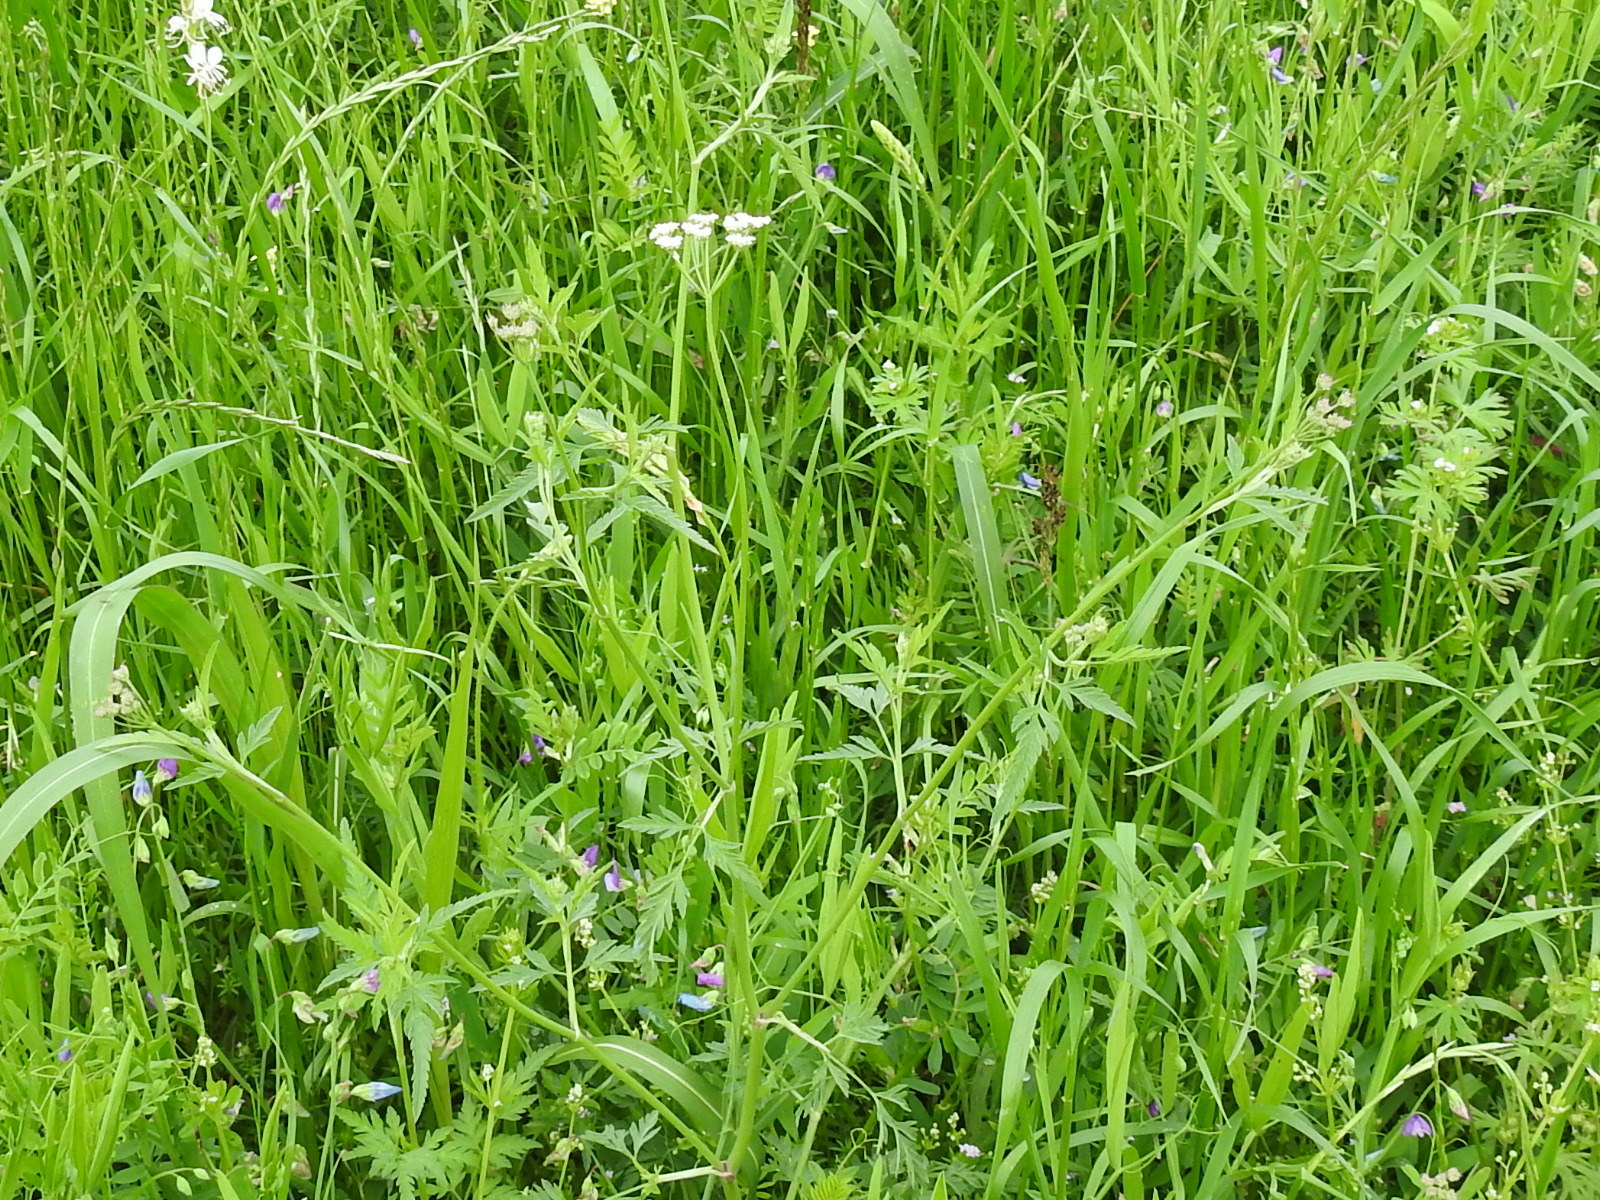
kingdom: Plantae
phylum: Tracheophyta
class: Magnoliopsida
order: Apiales
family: Apiaceae
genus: Torilis
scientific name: Torilis arvensis
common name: Spreading hedge-parsley
